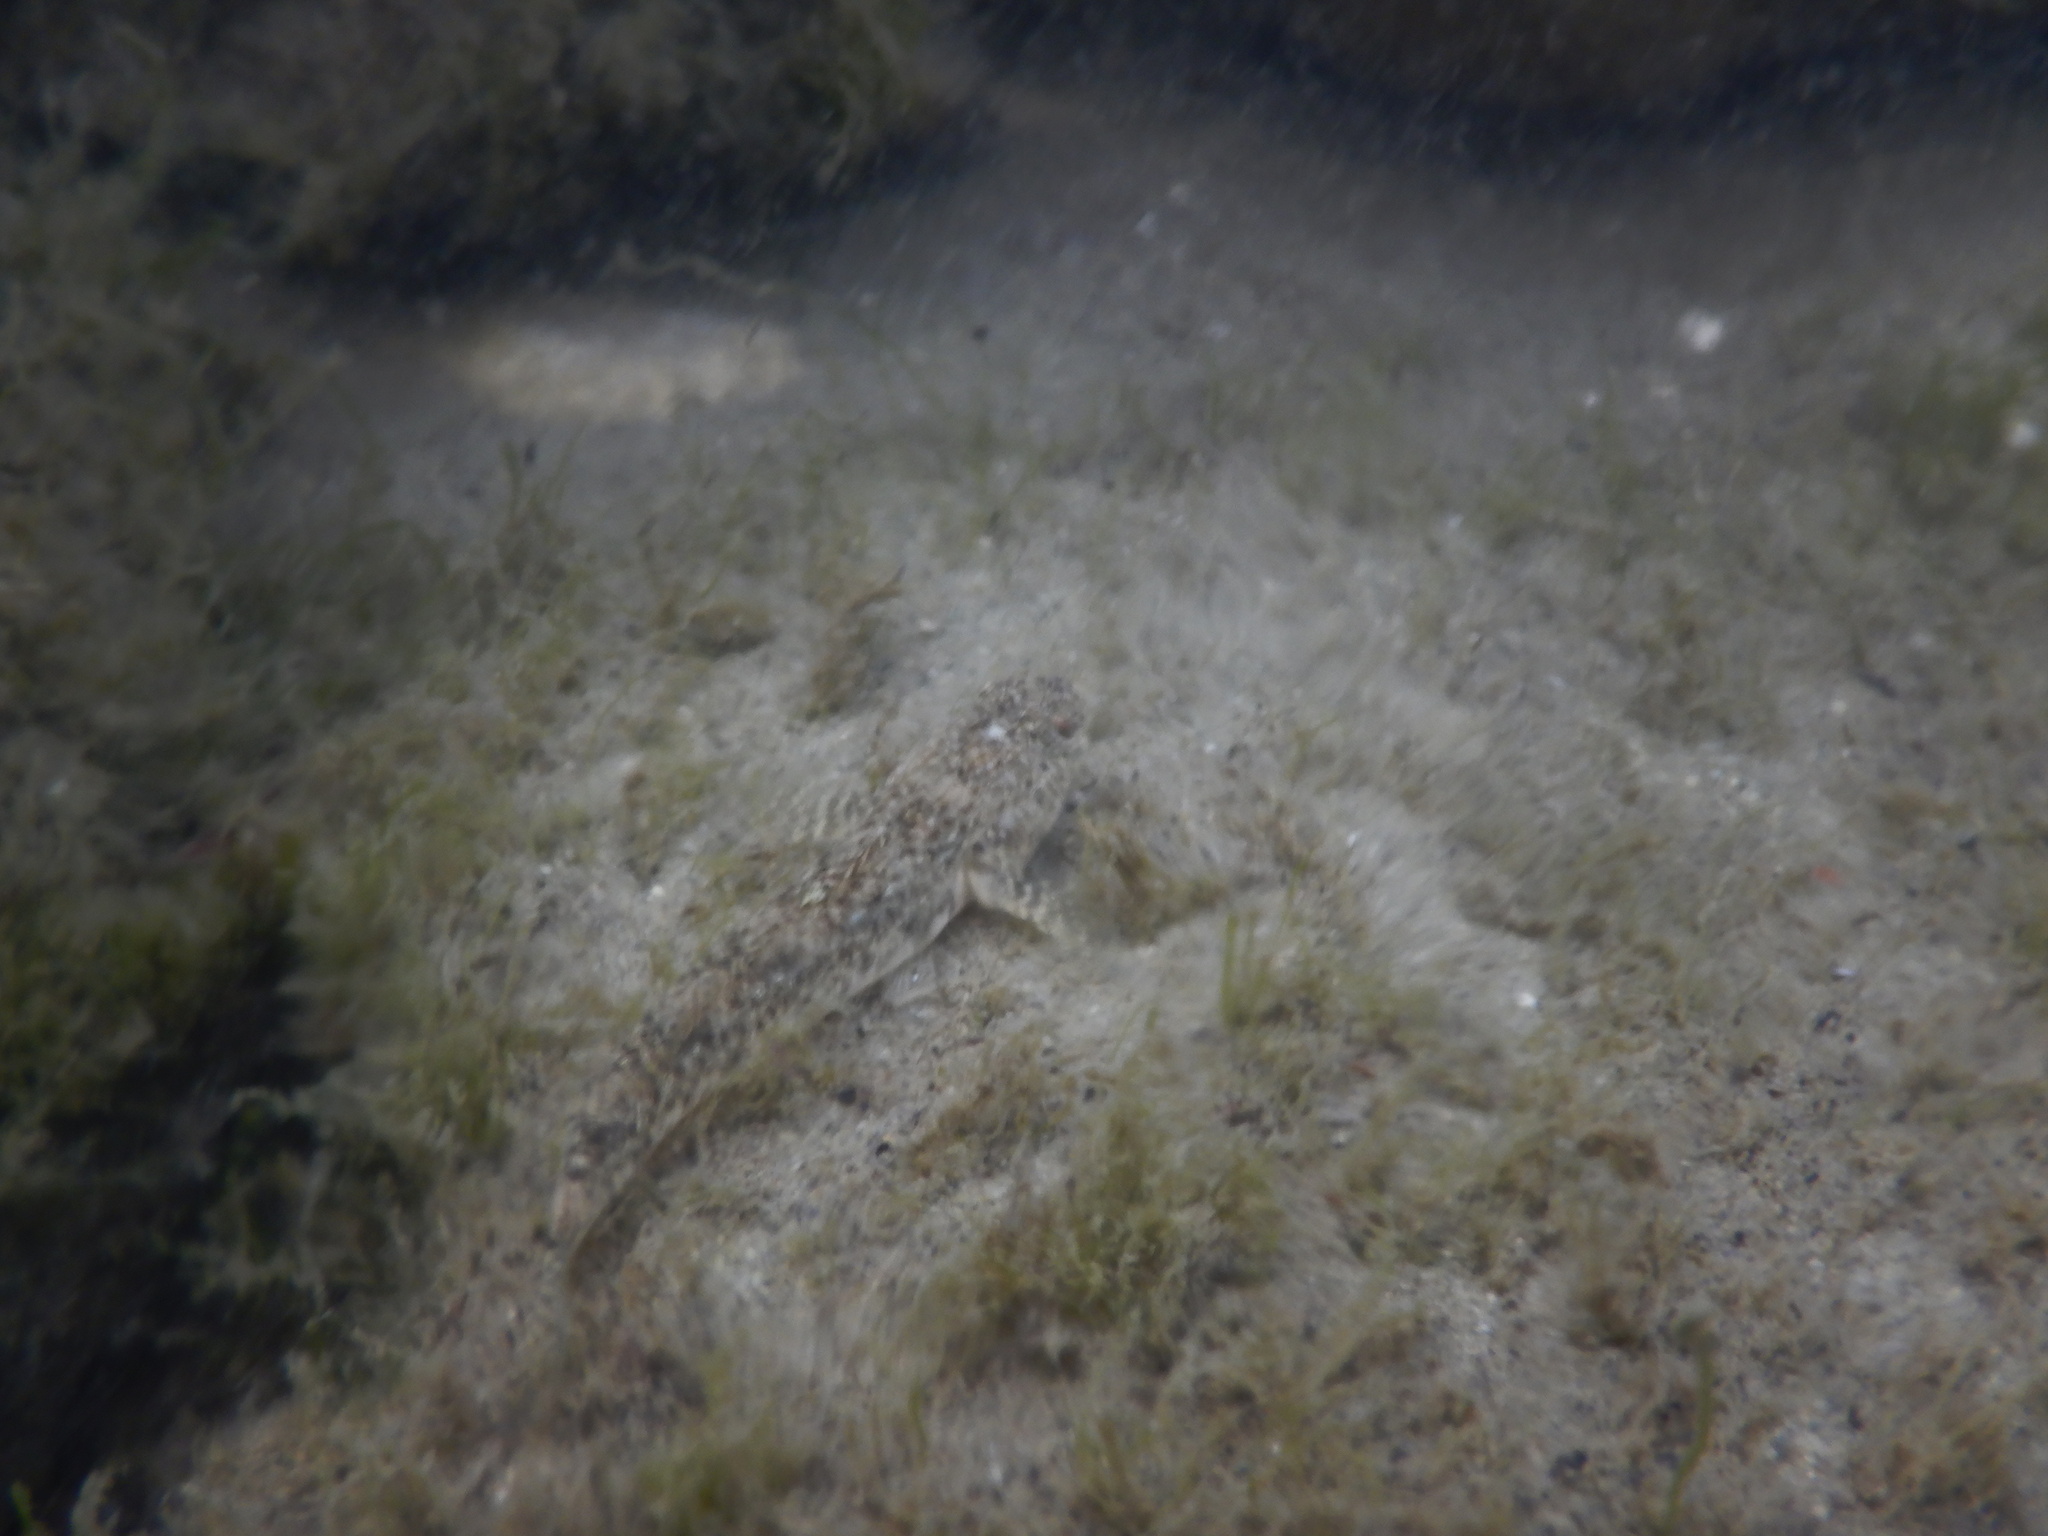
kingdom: Animalia
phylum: Chordata
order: Perciformes
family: Gobiidae
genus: Pomatoschistus
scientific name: Pomatoschistus marmoratus
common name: Marbled goby
